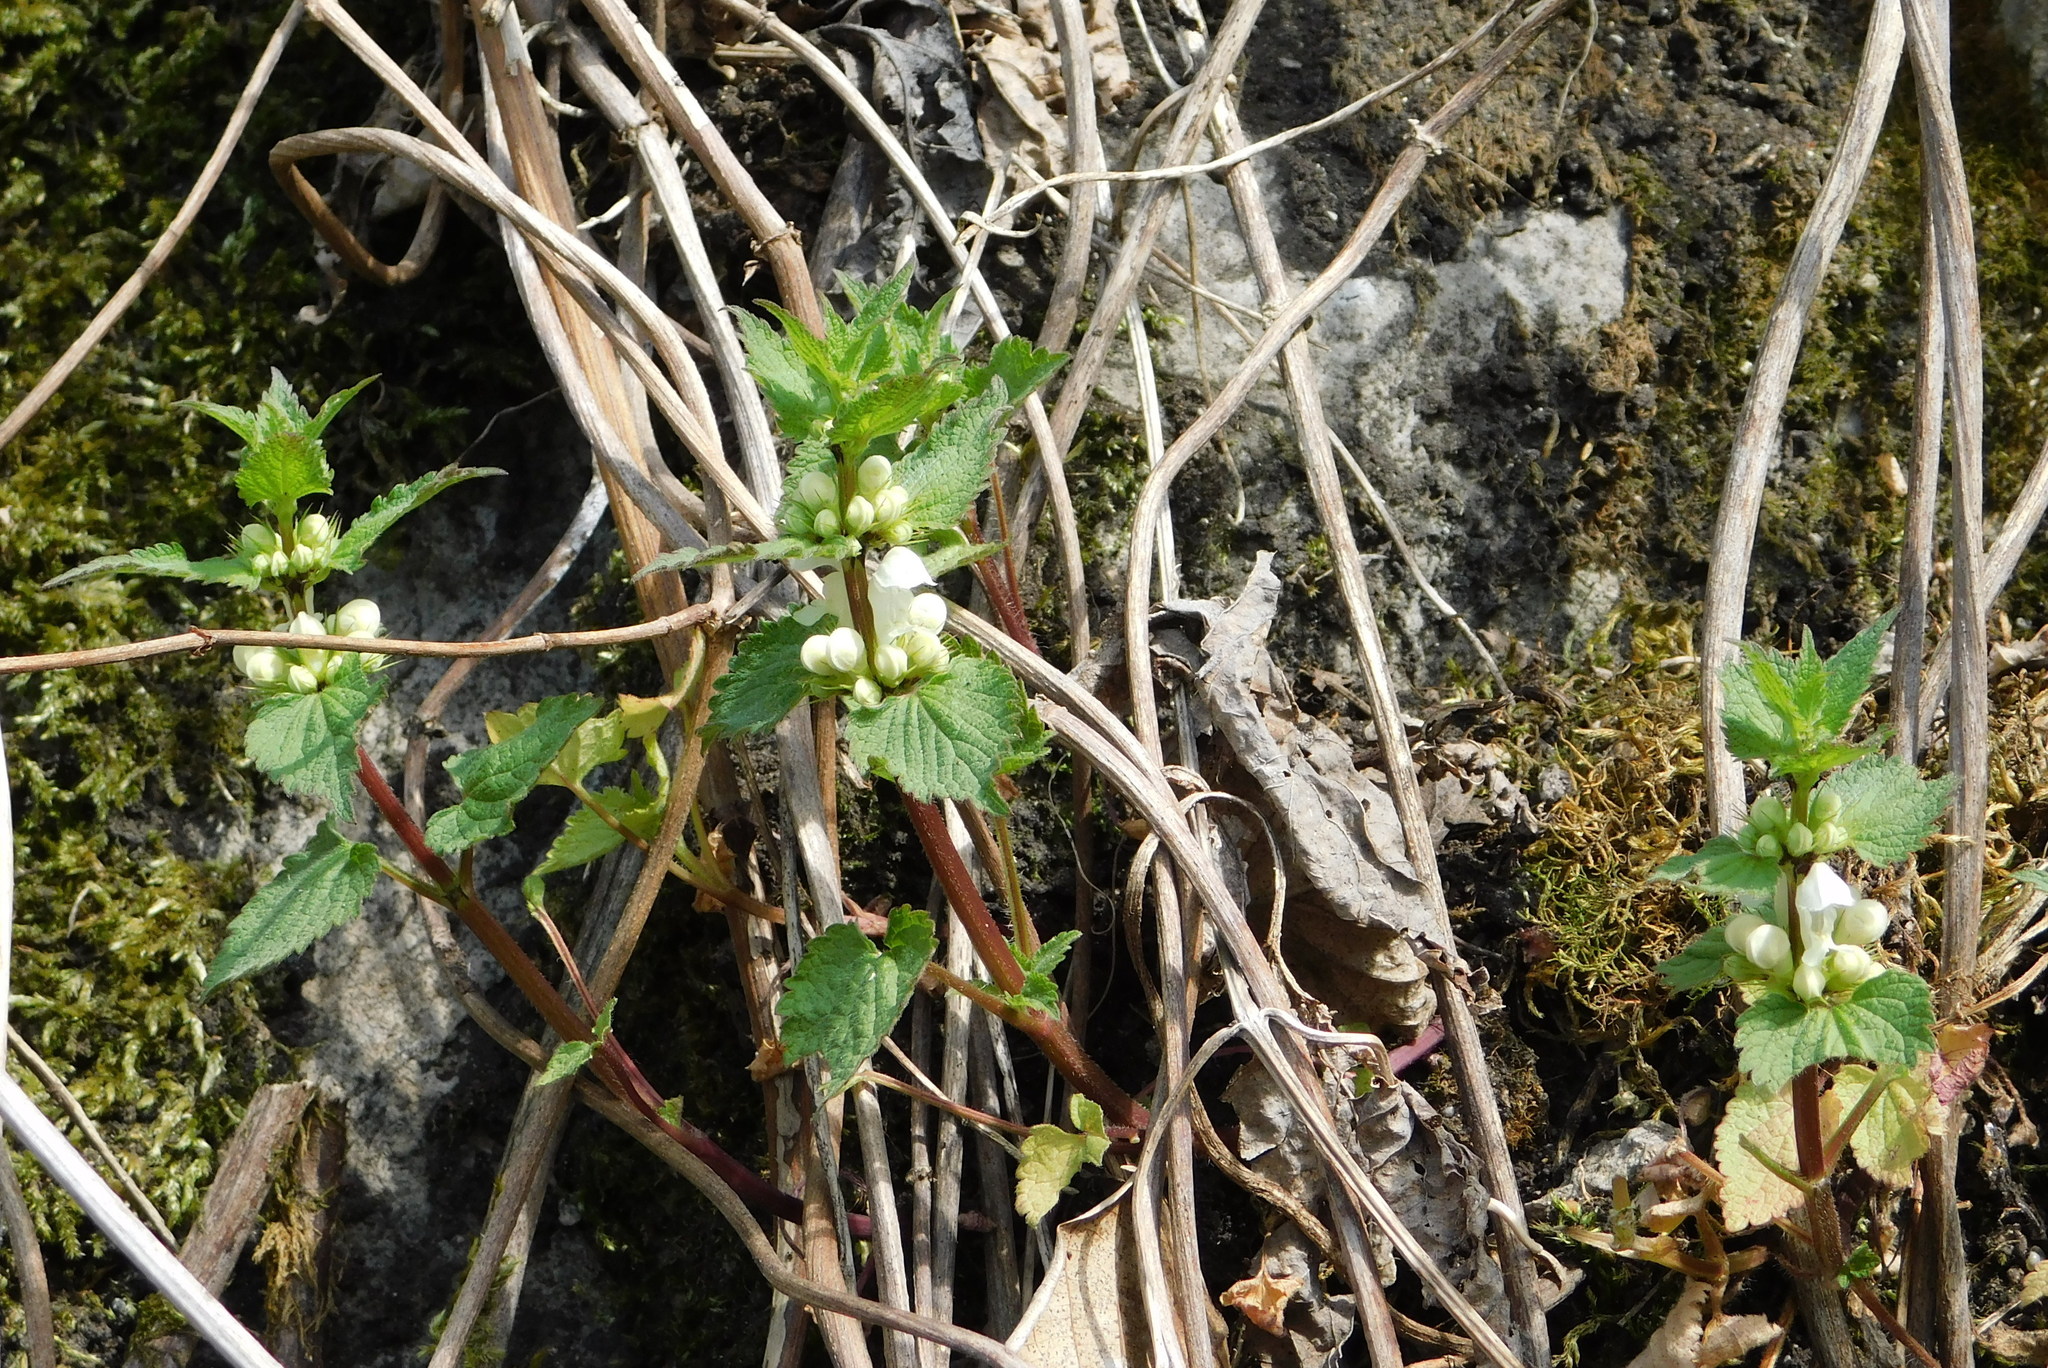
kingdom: Plantae
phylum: Tracheophyta
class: Magnoliopsida
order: Lamiales
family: Lamiaceae
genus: Lamium
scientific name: Lamium album
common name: White dead-nettle
